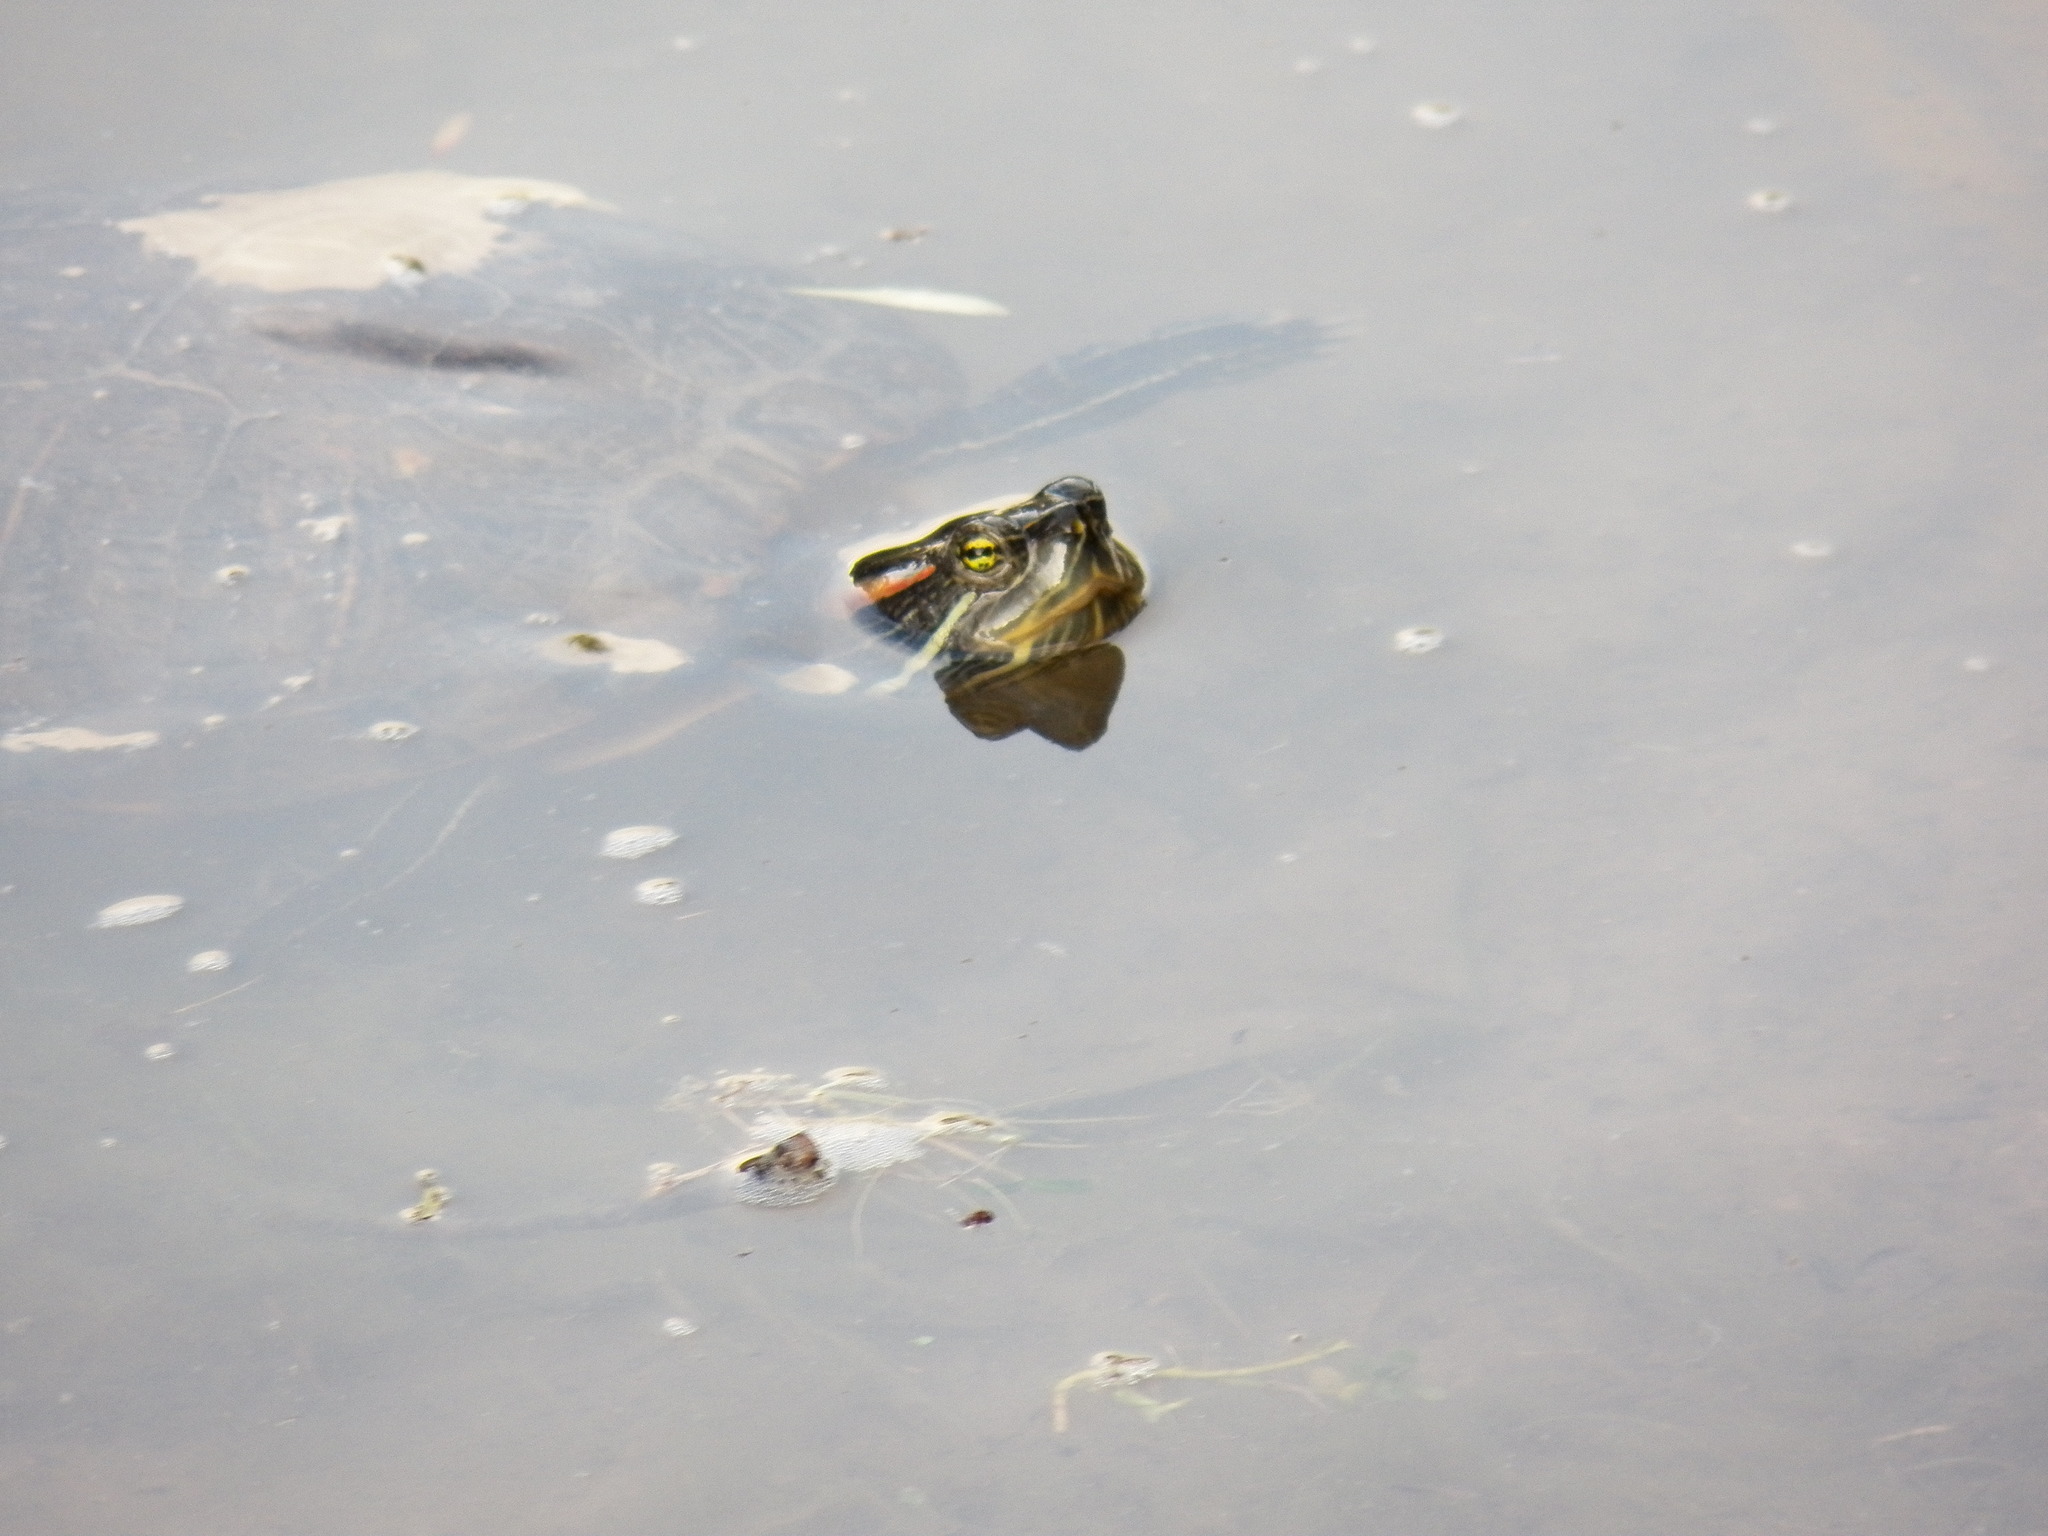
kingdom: Animalia
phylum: Chordata
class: Testudines
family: Emydidae
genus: Trachemys
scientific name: Trachemys scripta
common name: Slider
